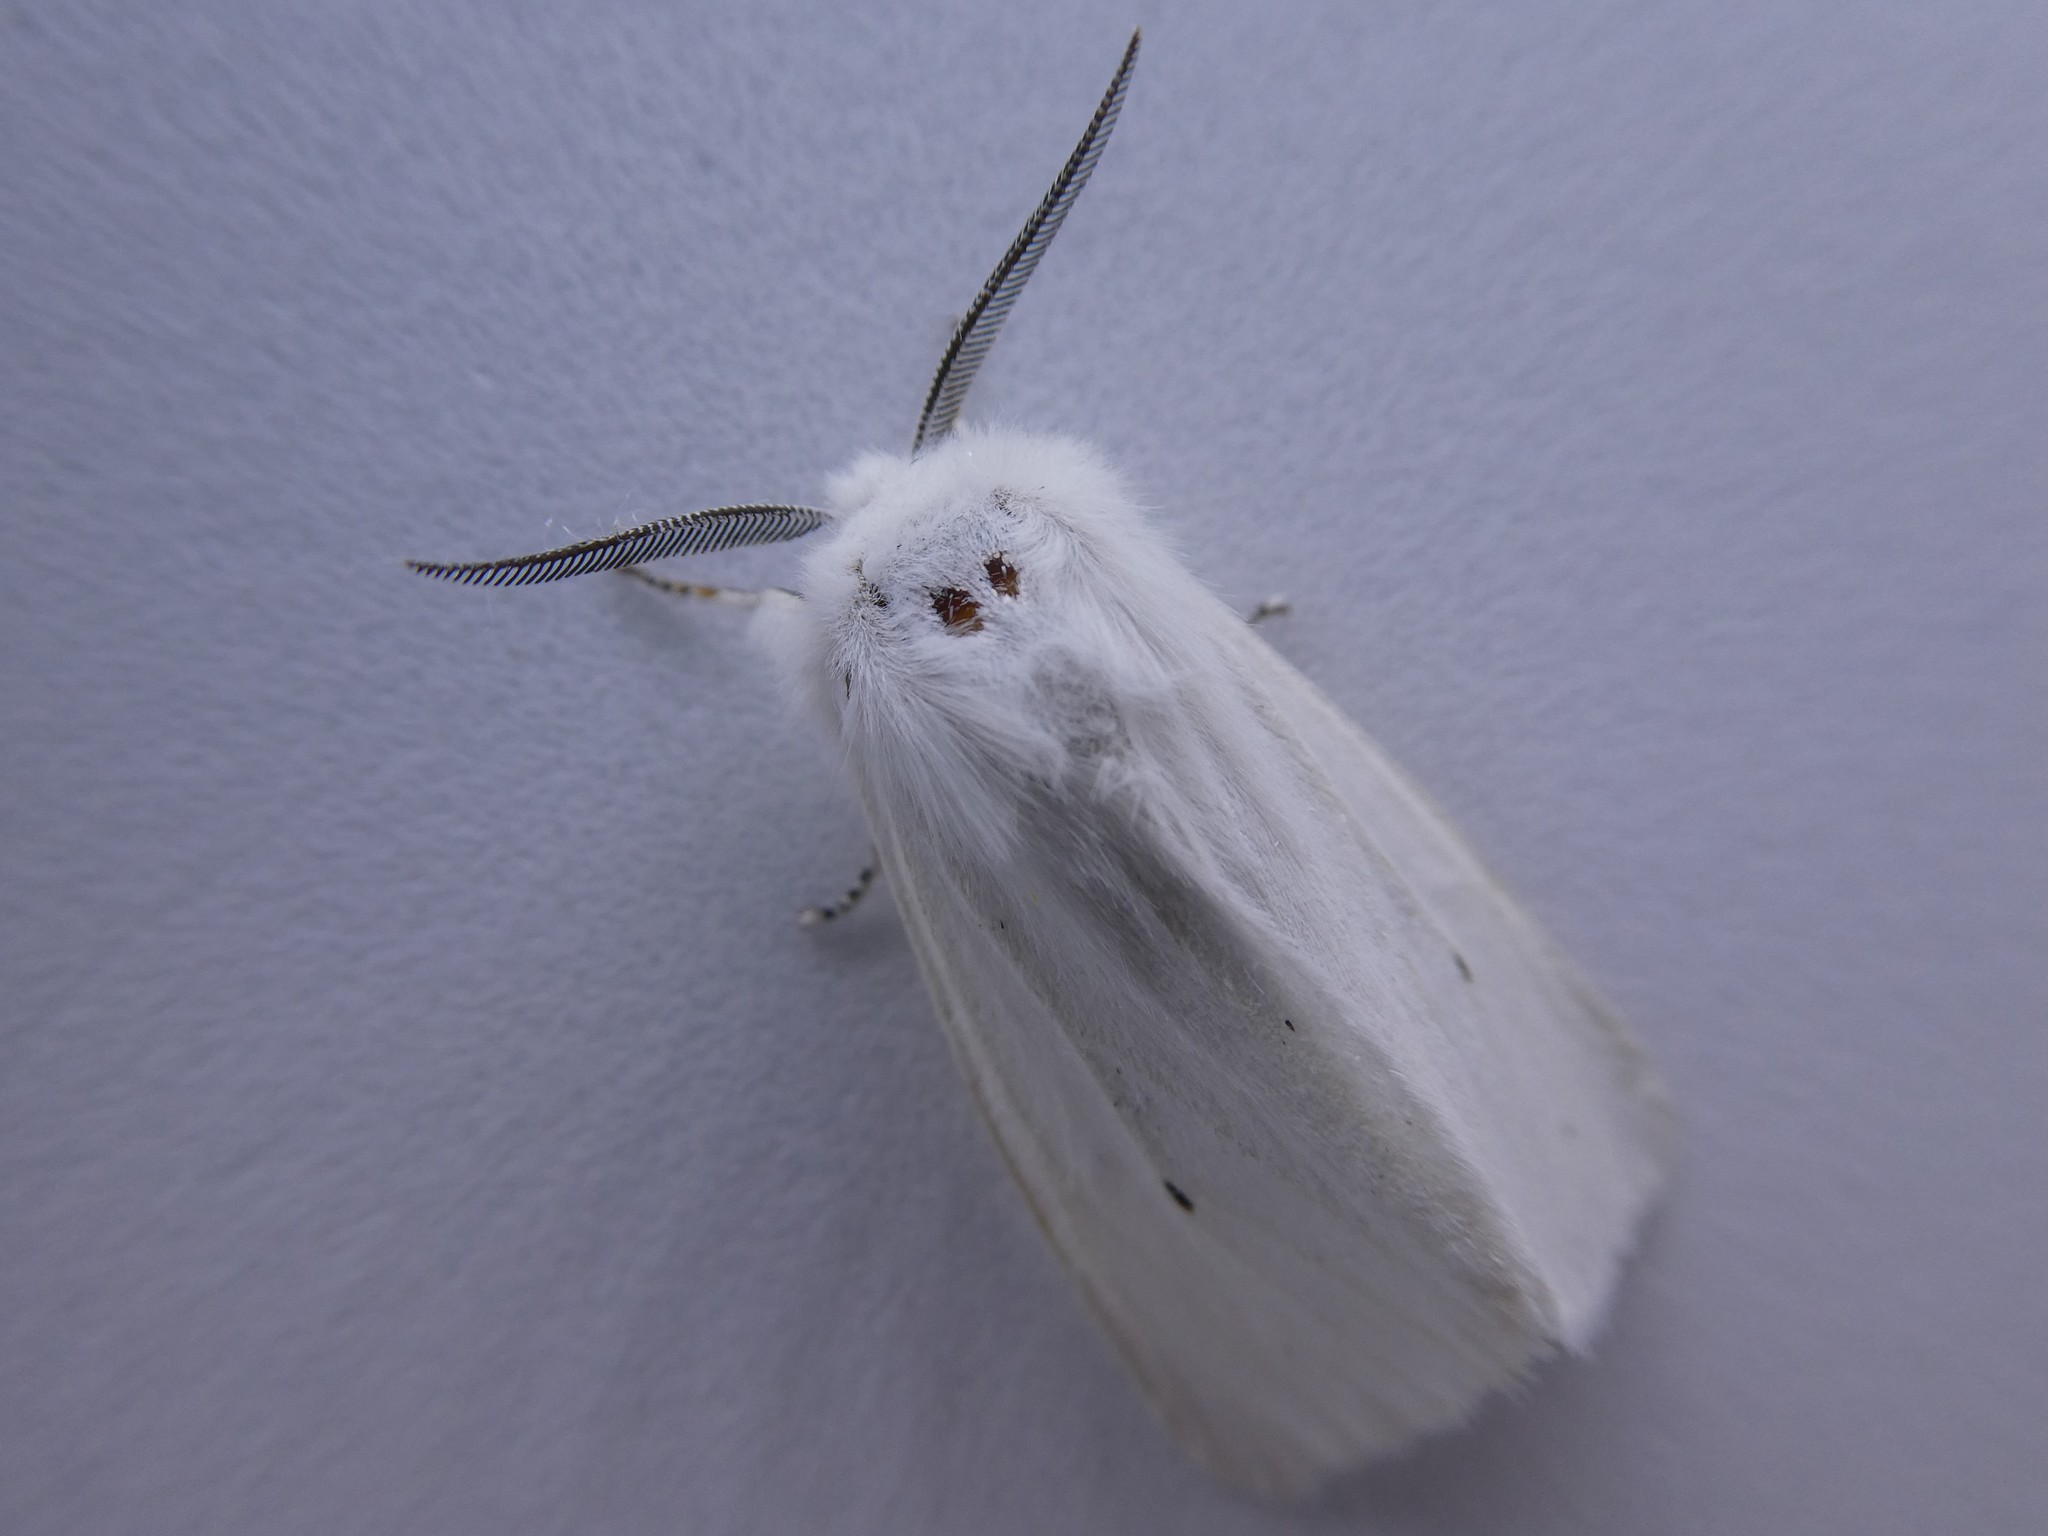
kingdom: Animalia
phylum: Arthropoda
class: Insecta
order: Lepidoptera
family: Erebidae
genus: Spilosoma
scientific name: Spilosoma virginica
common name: Virginia tiger moth
